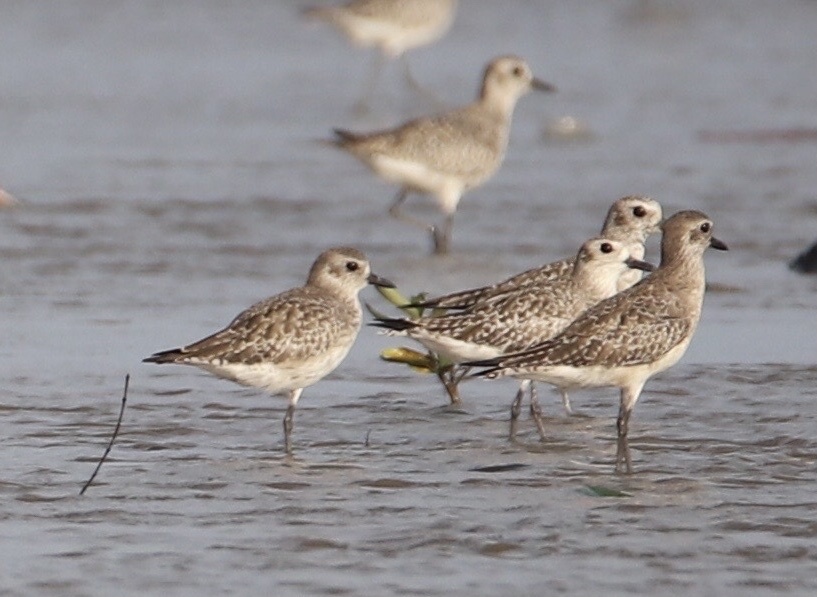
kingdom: Animalia
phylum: Chordata
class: Aves
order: Charadriiformes
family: Charadriidae
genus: Pluvialis
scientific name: Pluvialis squatarola
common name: Grey plover
